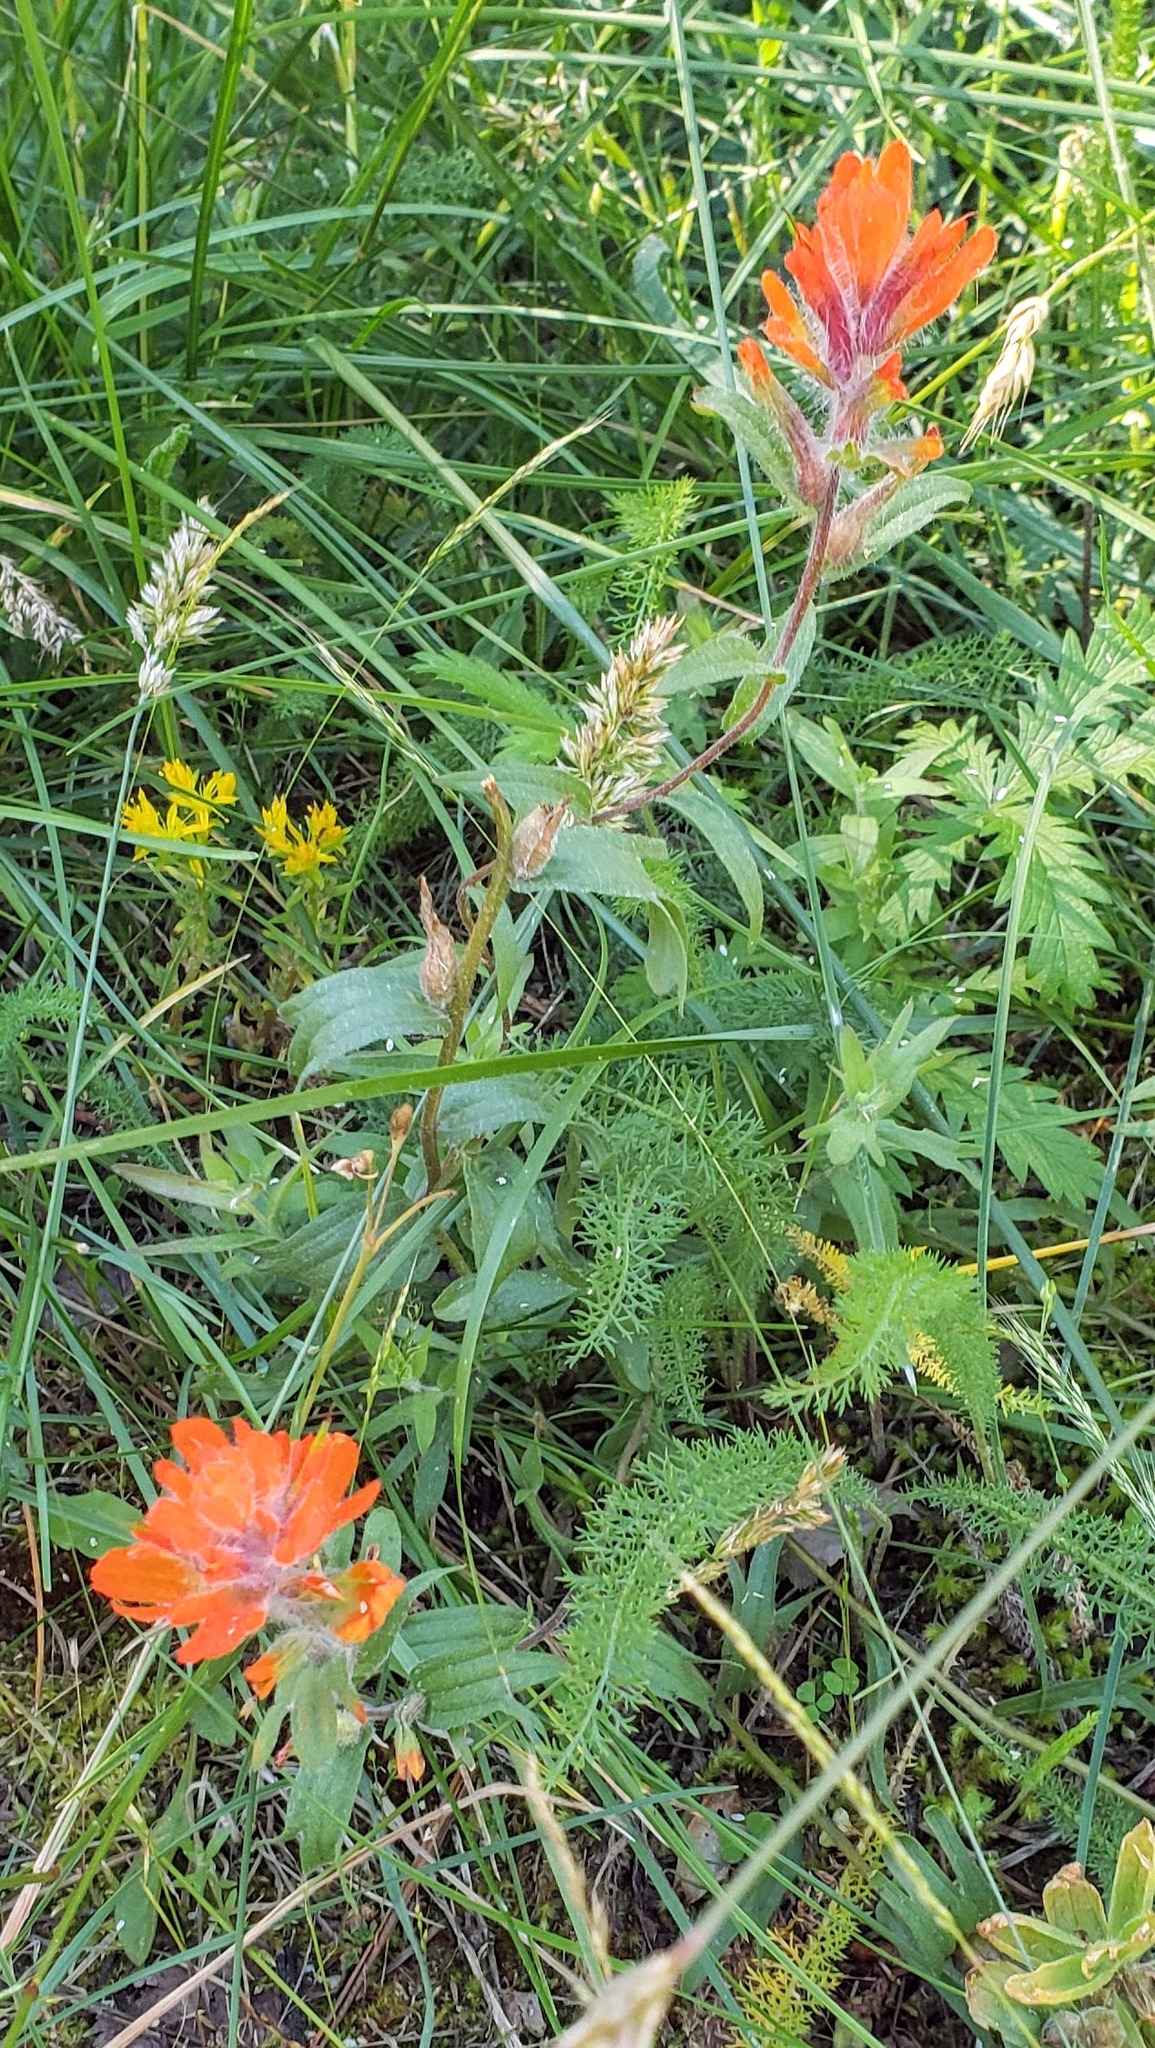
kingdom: Plantae
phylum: Tracheophyta
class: Magnoliopsida
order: Lamiales
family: Orobanchaceae
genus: Castilleja
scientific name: Castilleja hispida
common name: Bristly paintbrush
